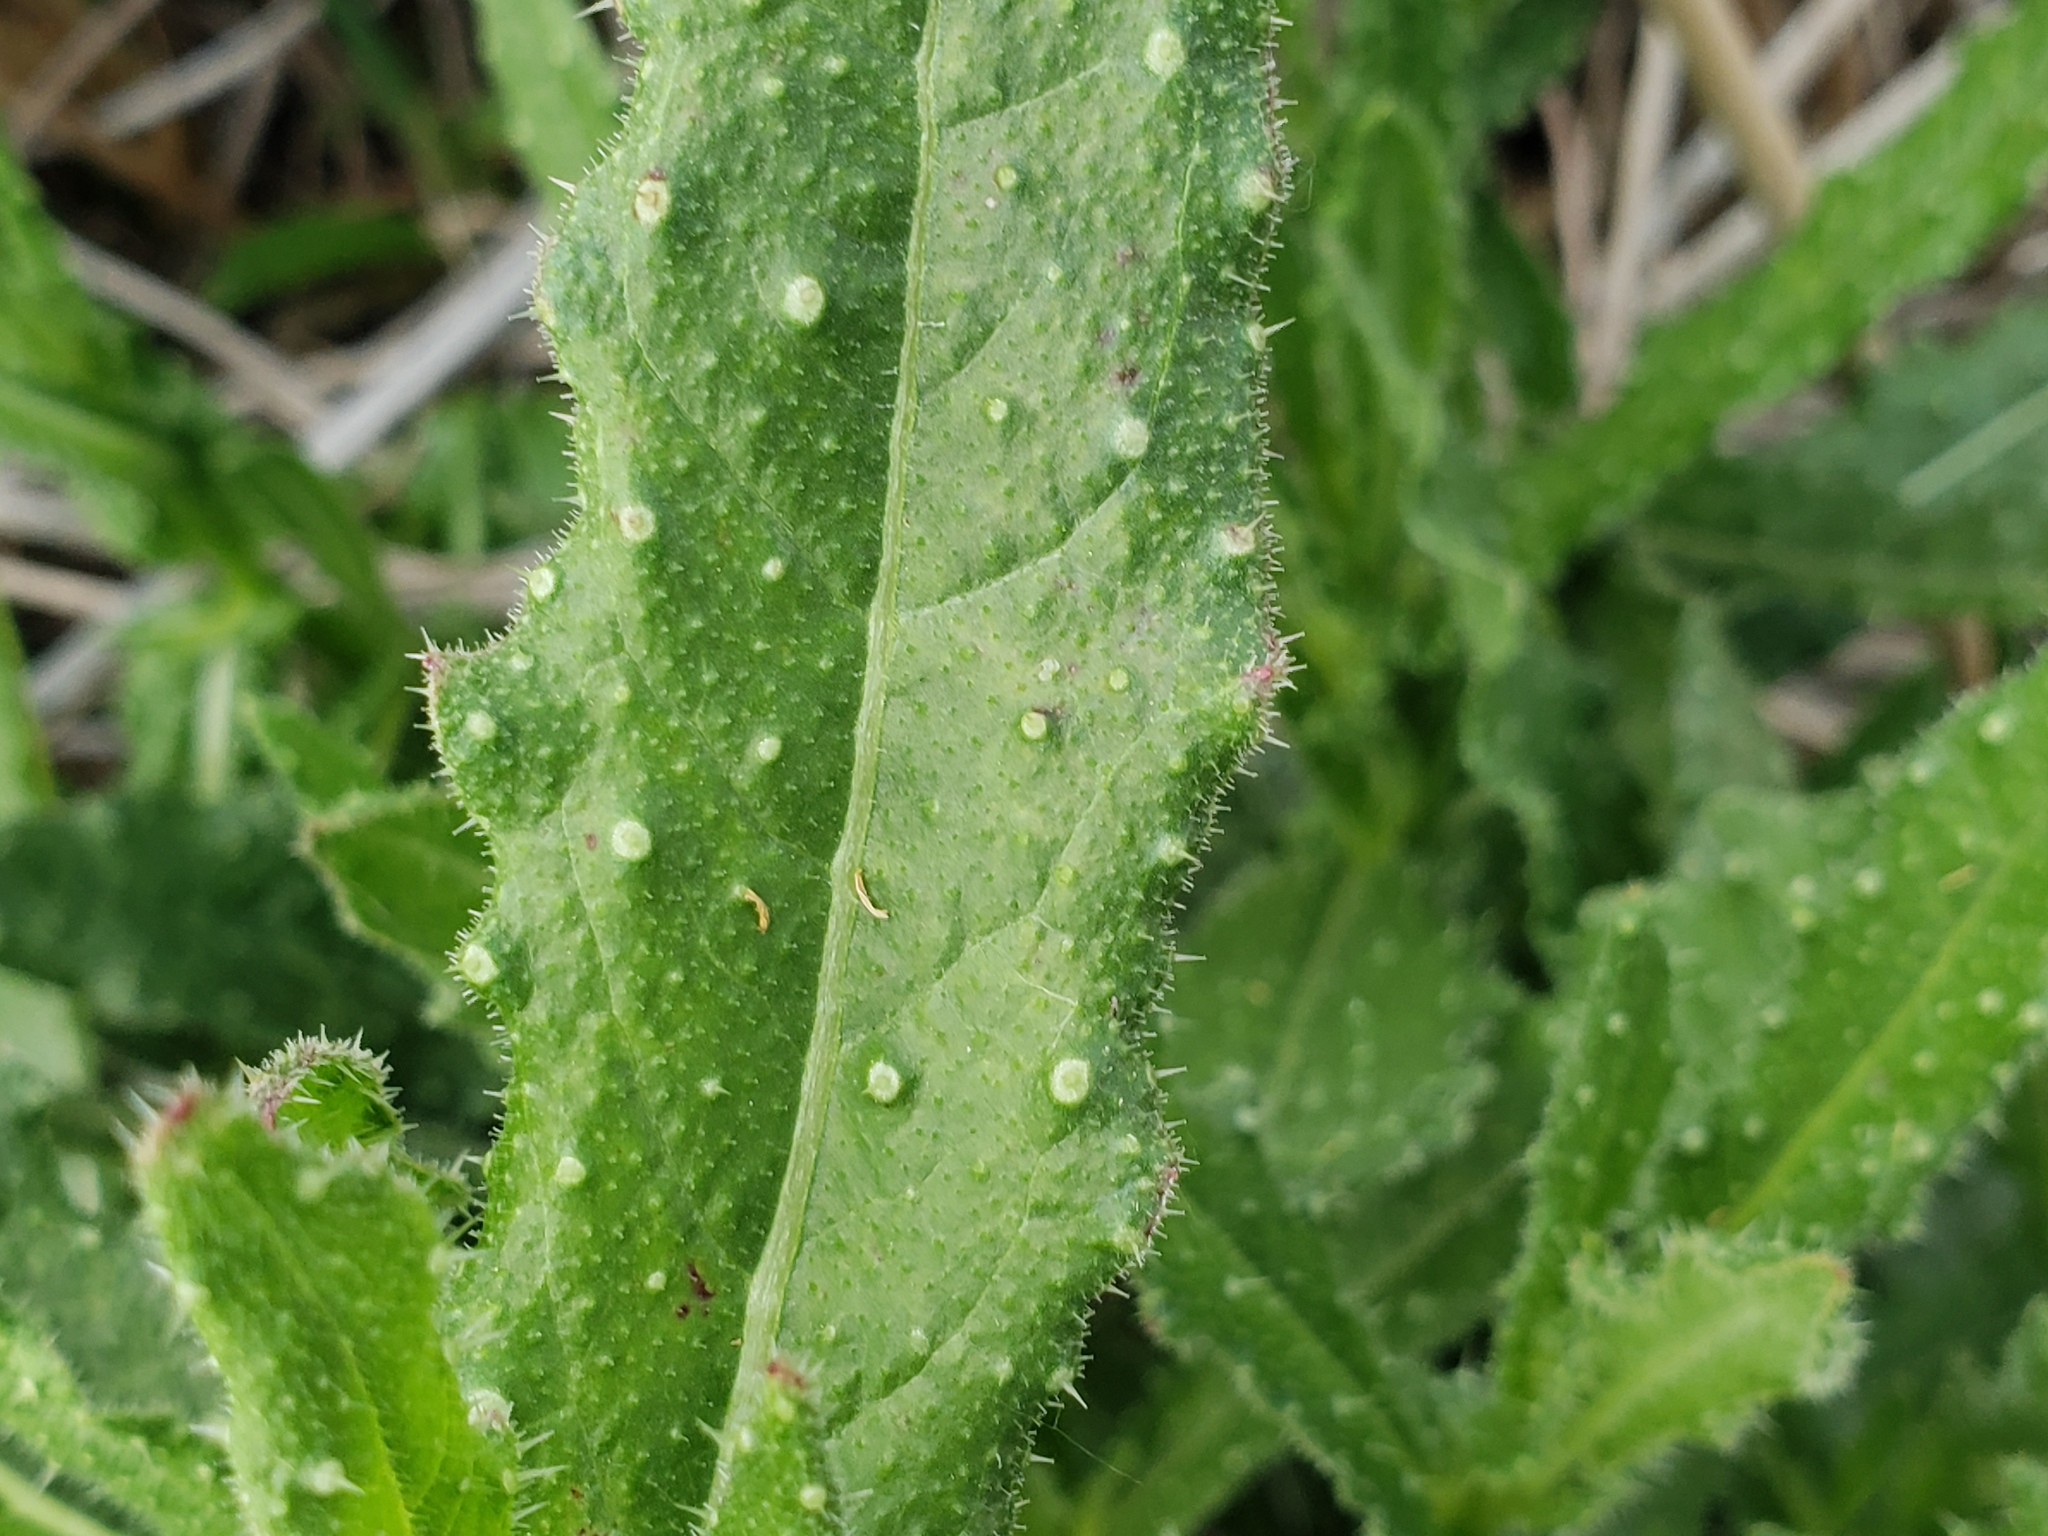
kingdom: Plantae
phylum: Tracheophyta
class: Magnoliopsida
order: Asterales
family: Asteraceae
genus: Helminthotheca
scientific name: Helminthotheca echioides
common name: Ox-tongue
